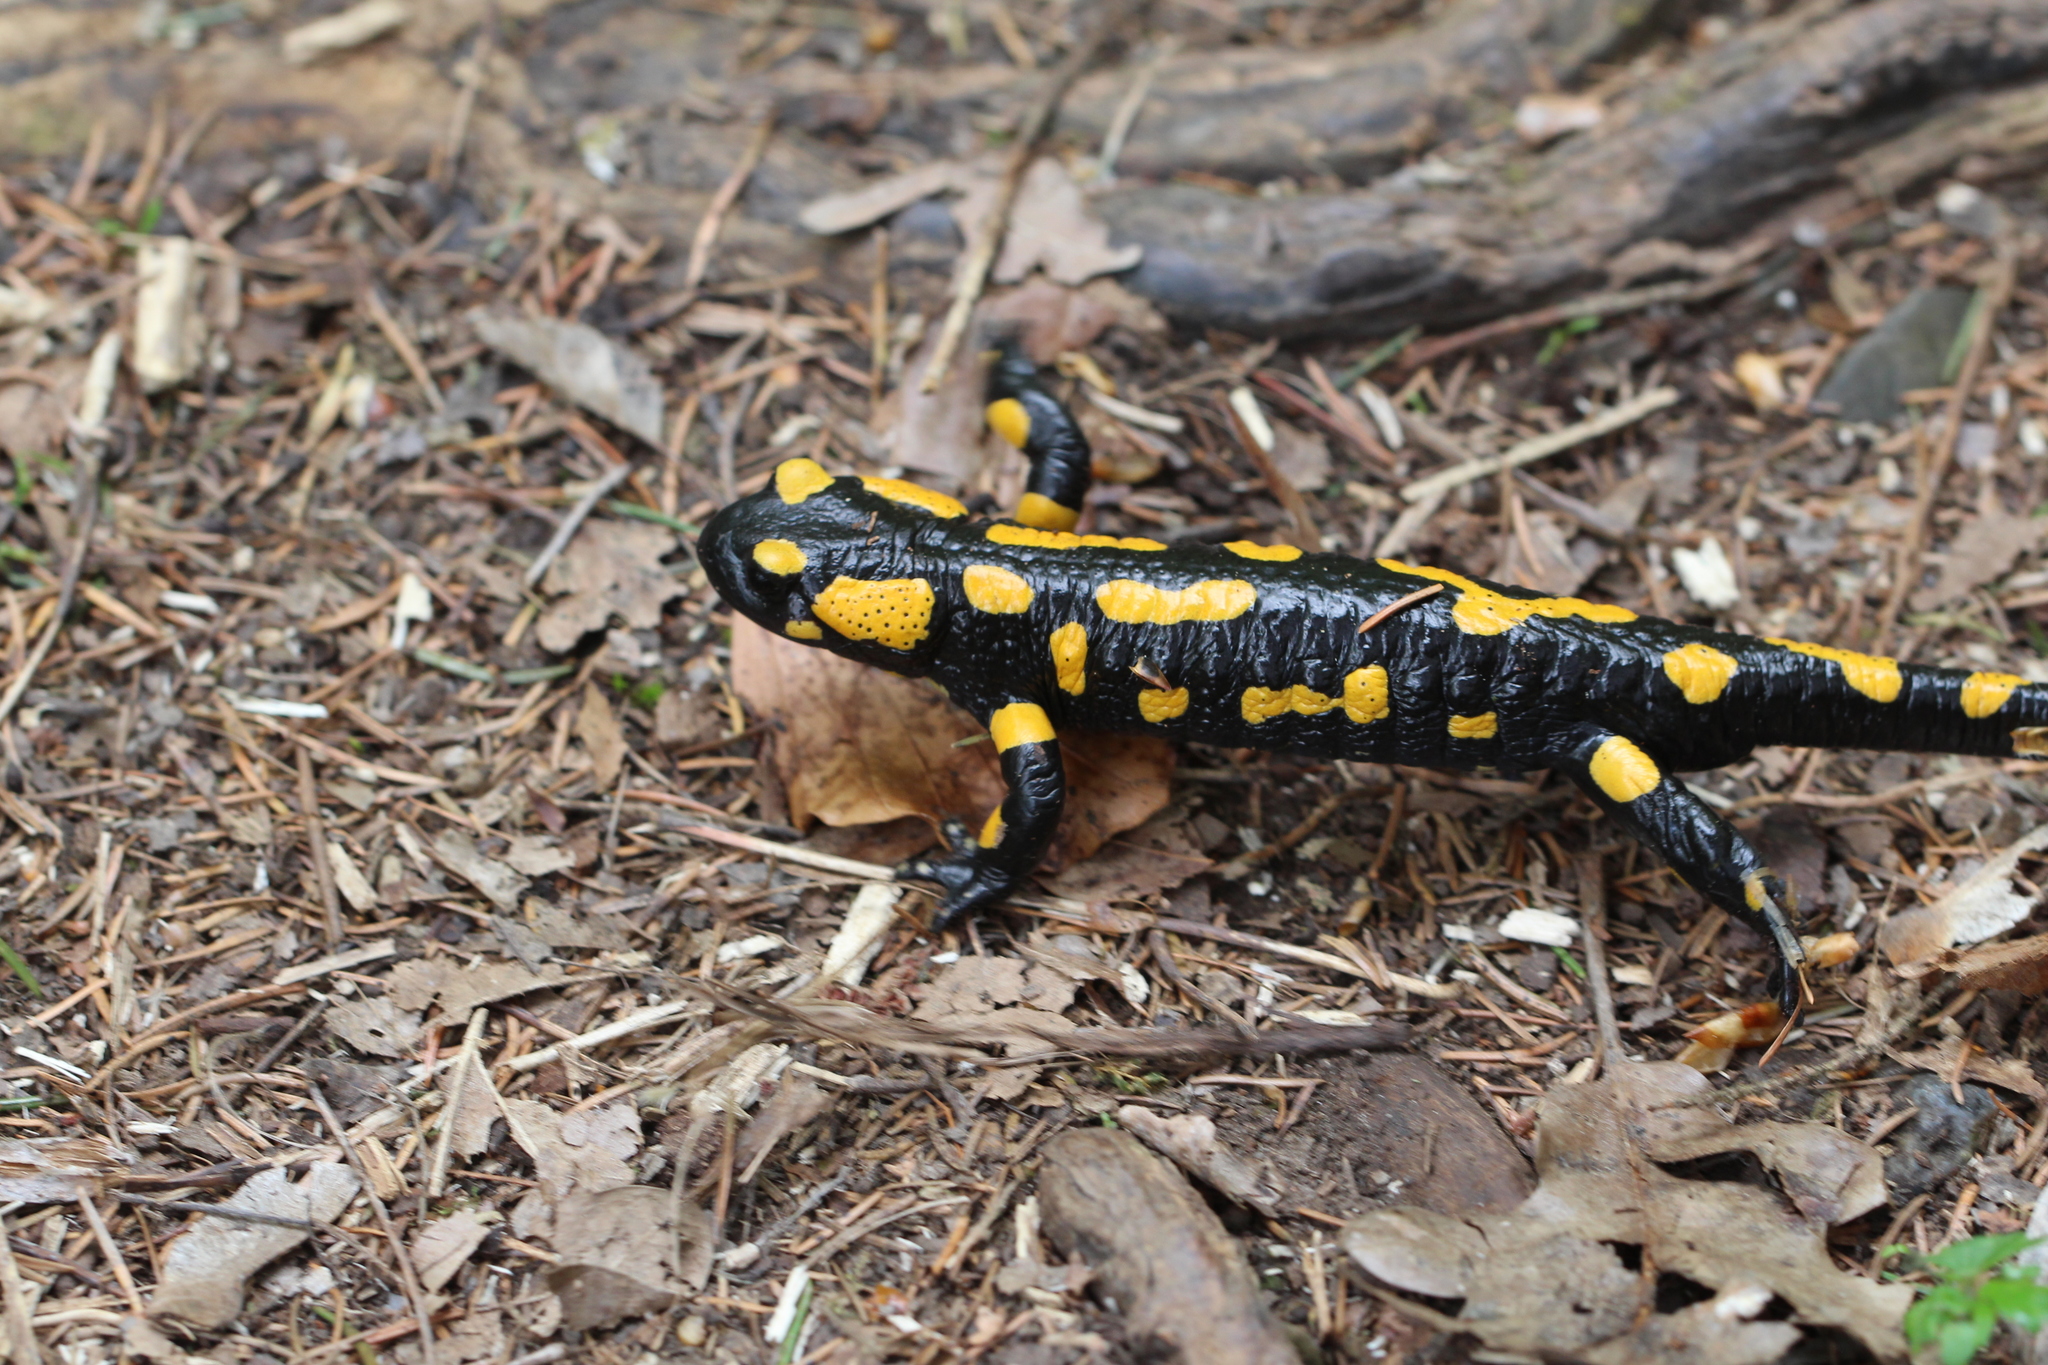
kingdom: Animalia
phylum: Chordata
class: Amphibia
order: Caudata
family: Salamandridae
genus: Salamandra
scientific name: Salamandra salamandra
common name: Fire salamander
